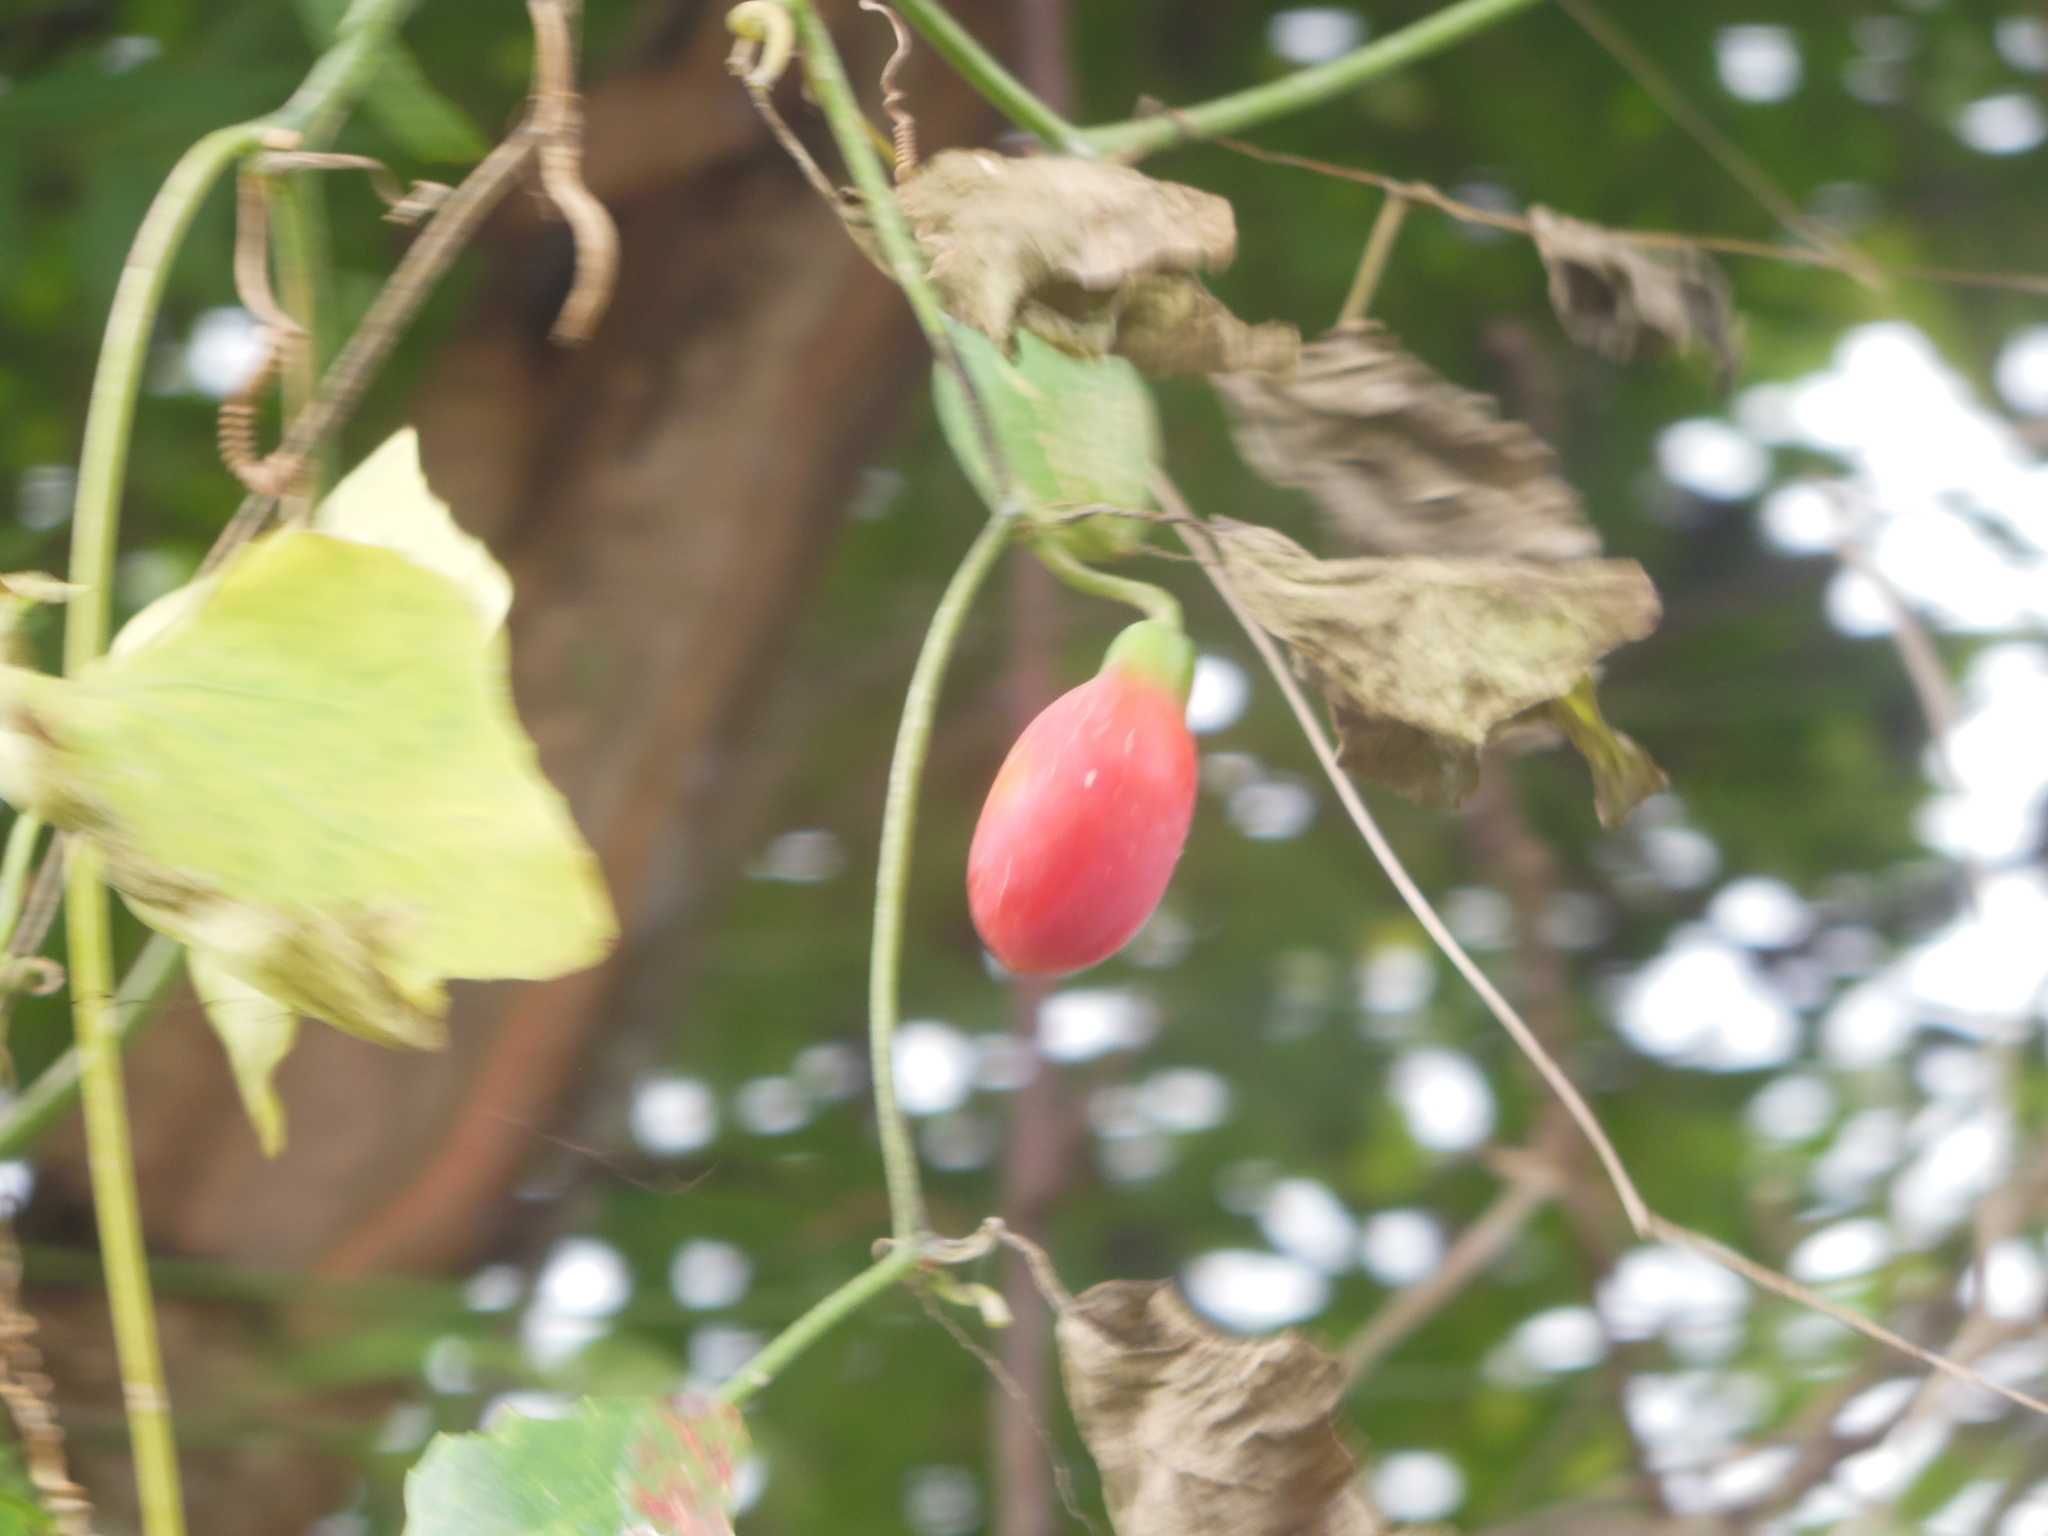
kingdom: Plantae
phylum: Tracheophyta
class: Magnoliopsida
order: Cucurbitales
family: Cucurbitaceae
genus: Coccinia
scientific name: Coccinia grandis
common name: Ivy gourd
